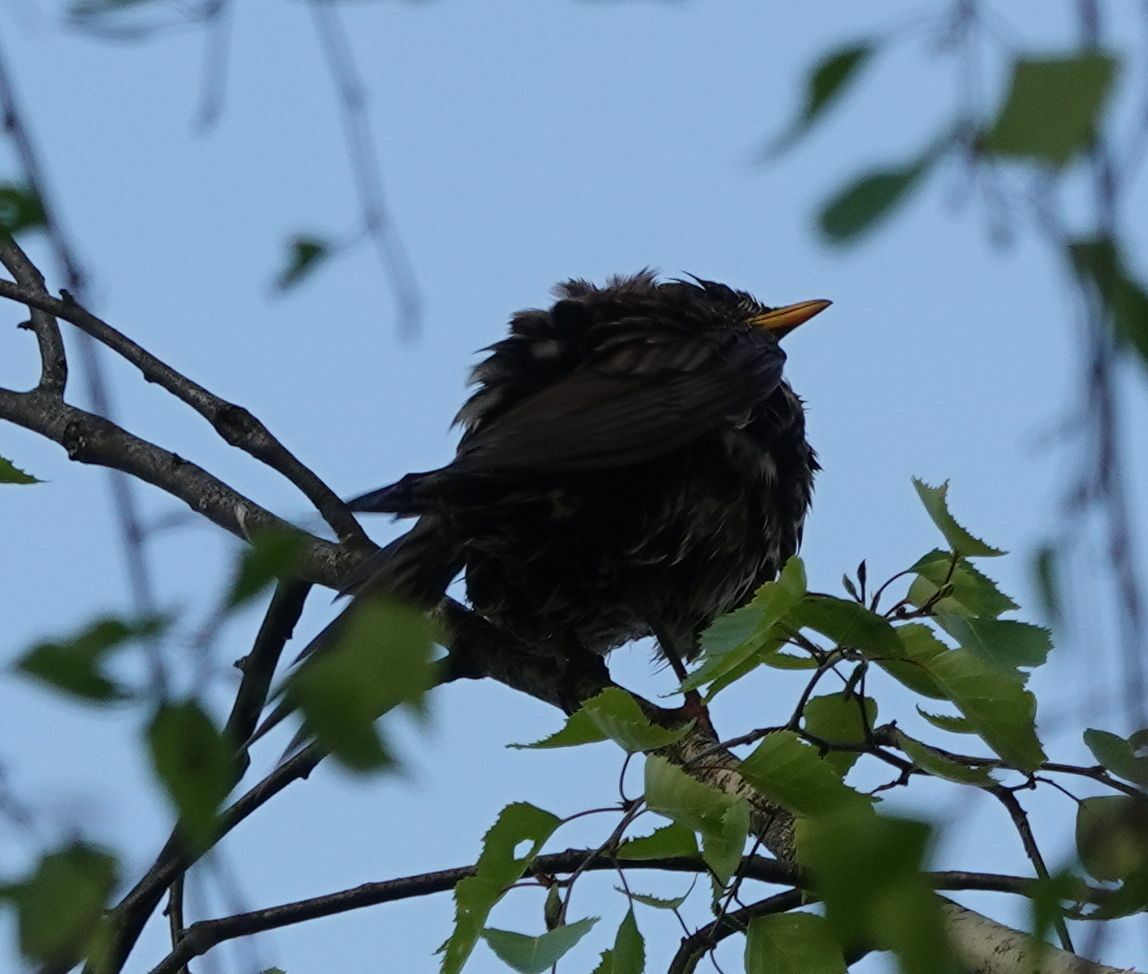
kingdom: Animalia
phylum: Chordata
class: Aves
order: Passeriformes
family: Turdidae
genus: Turdus
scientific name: Turdus merula
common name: Common blackbird
